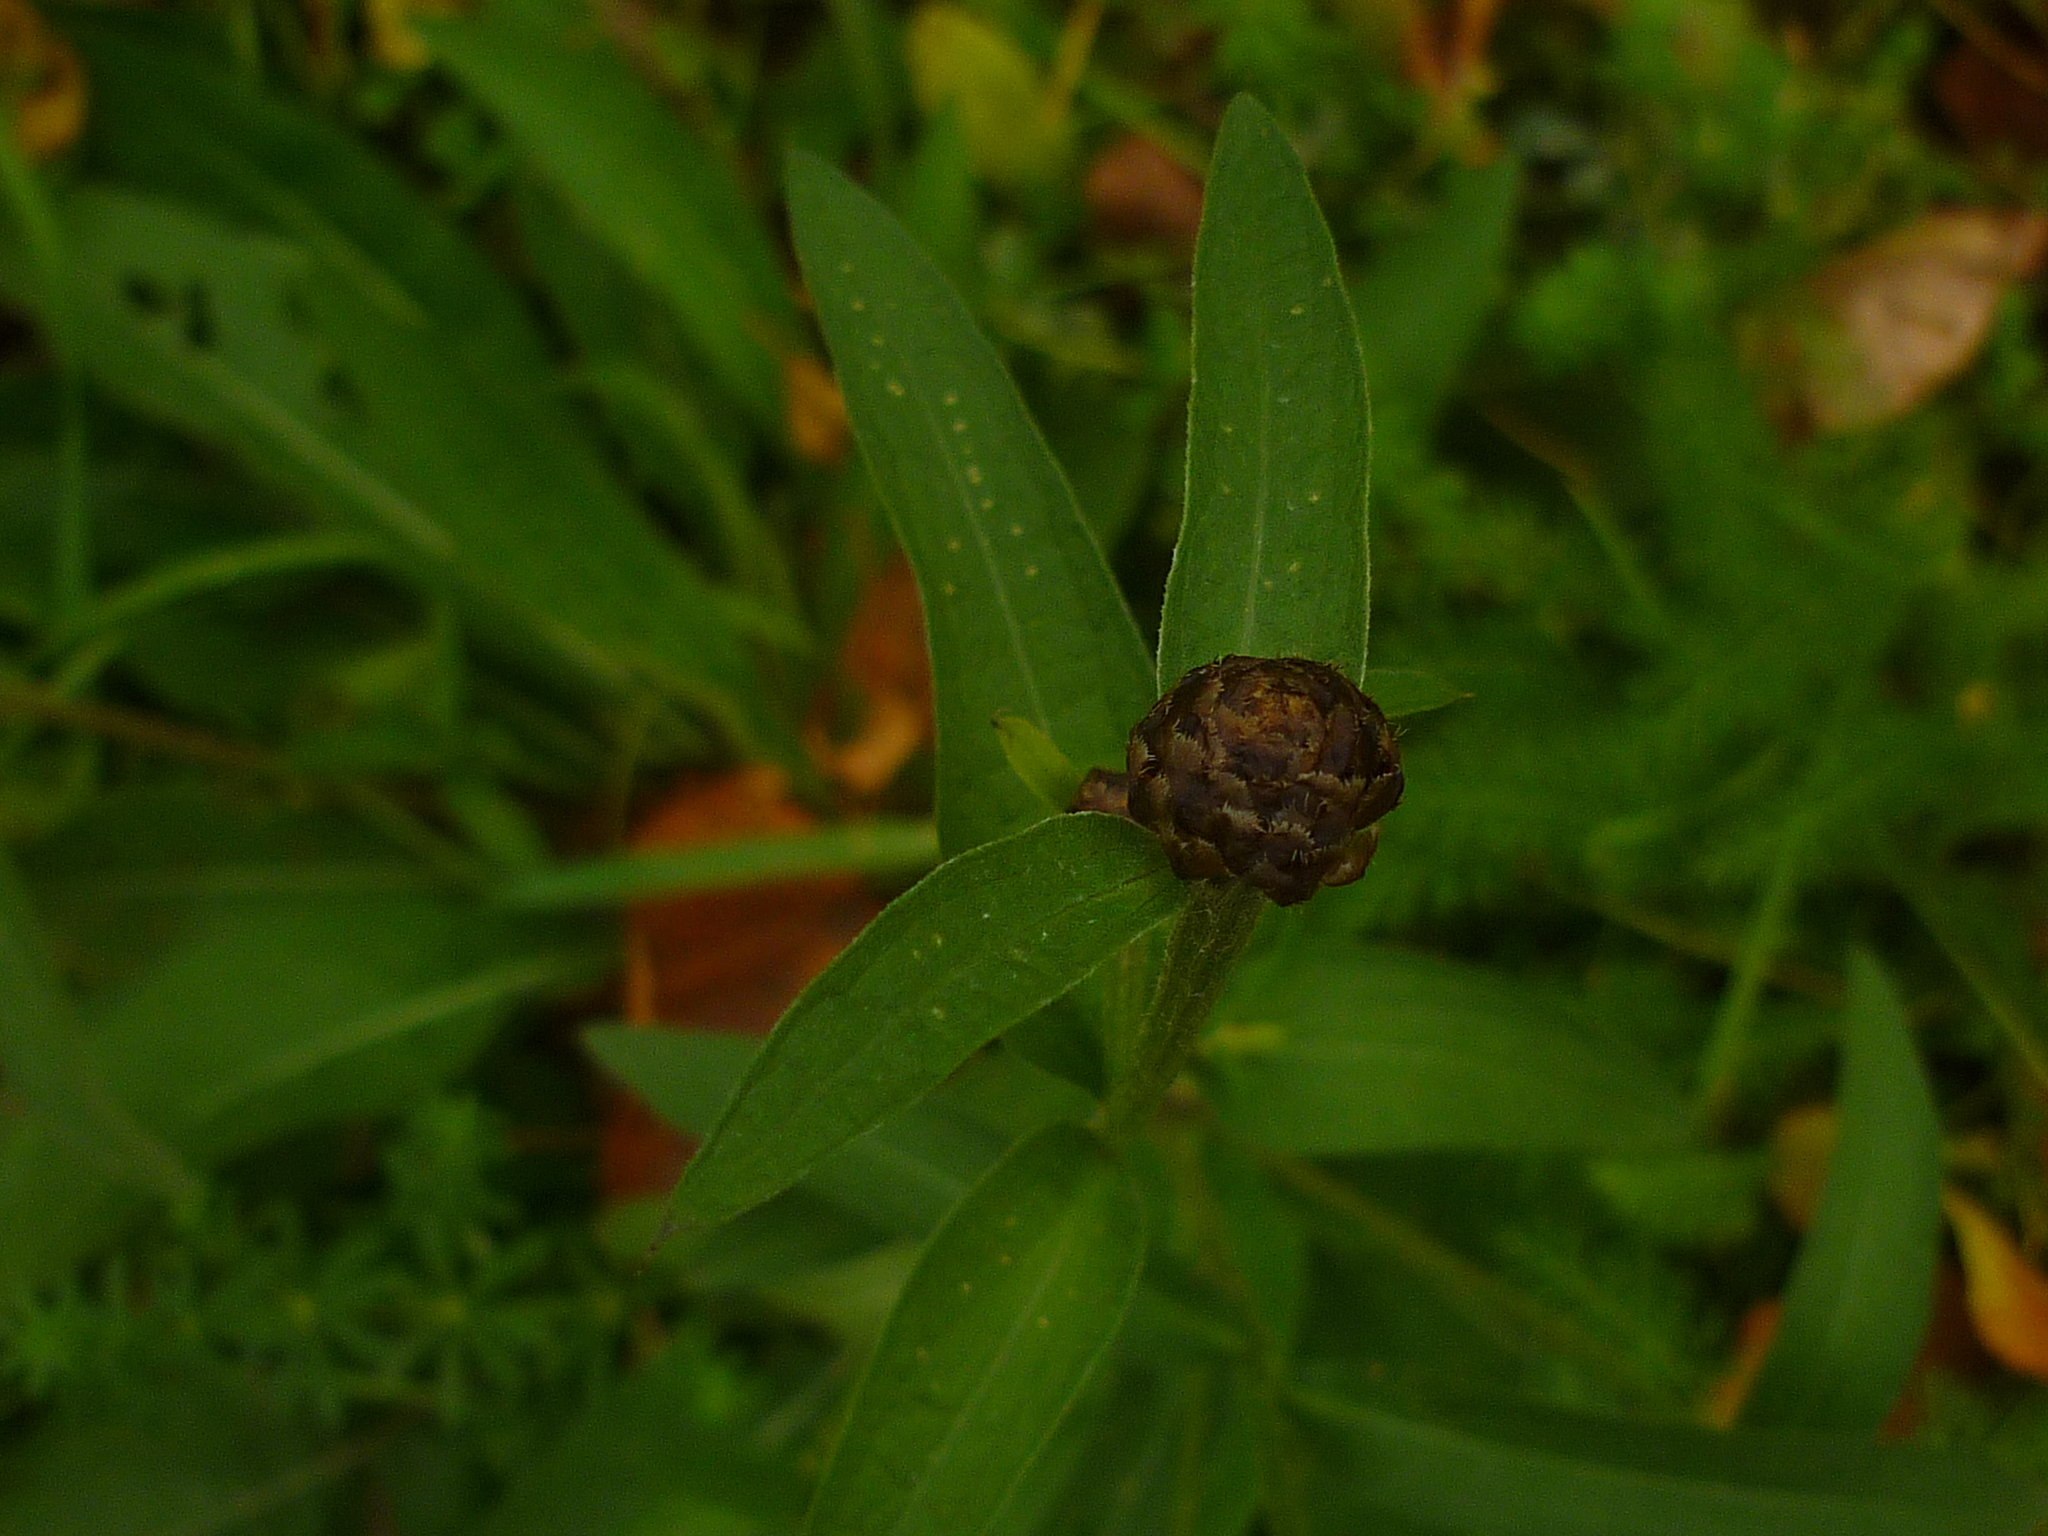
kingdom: Plantae
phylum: Tracheophyta
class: Magnoliopsida
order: Asterales
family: Asteraceae
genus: Centaurea
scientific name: Centaurea jacea
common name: Brown knapweed
